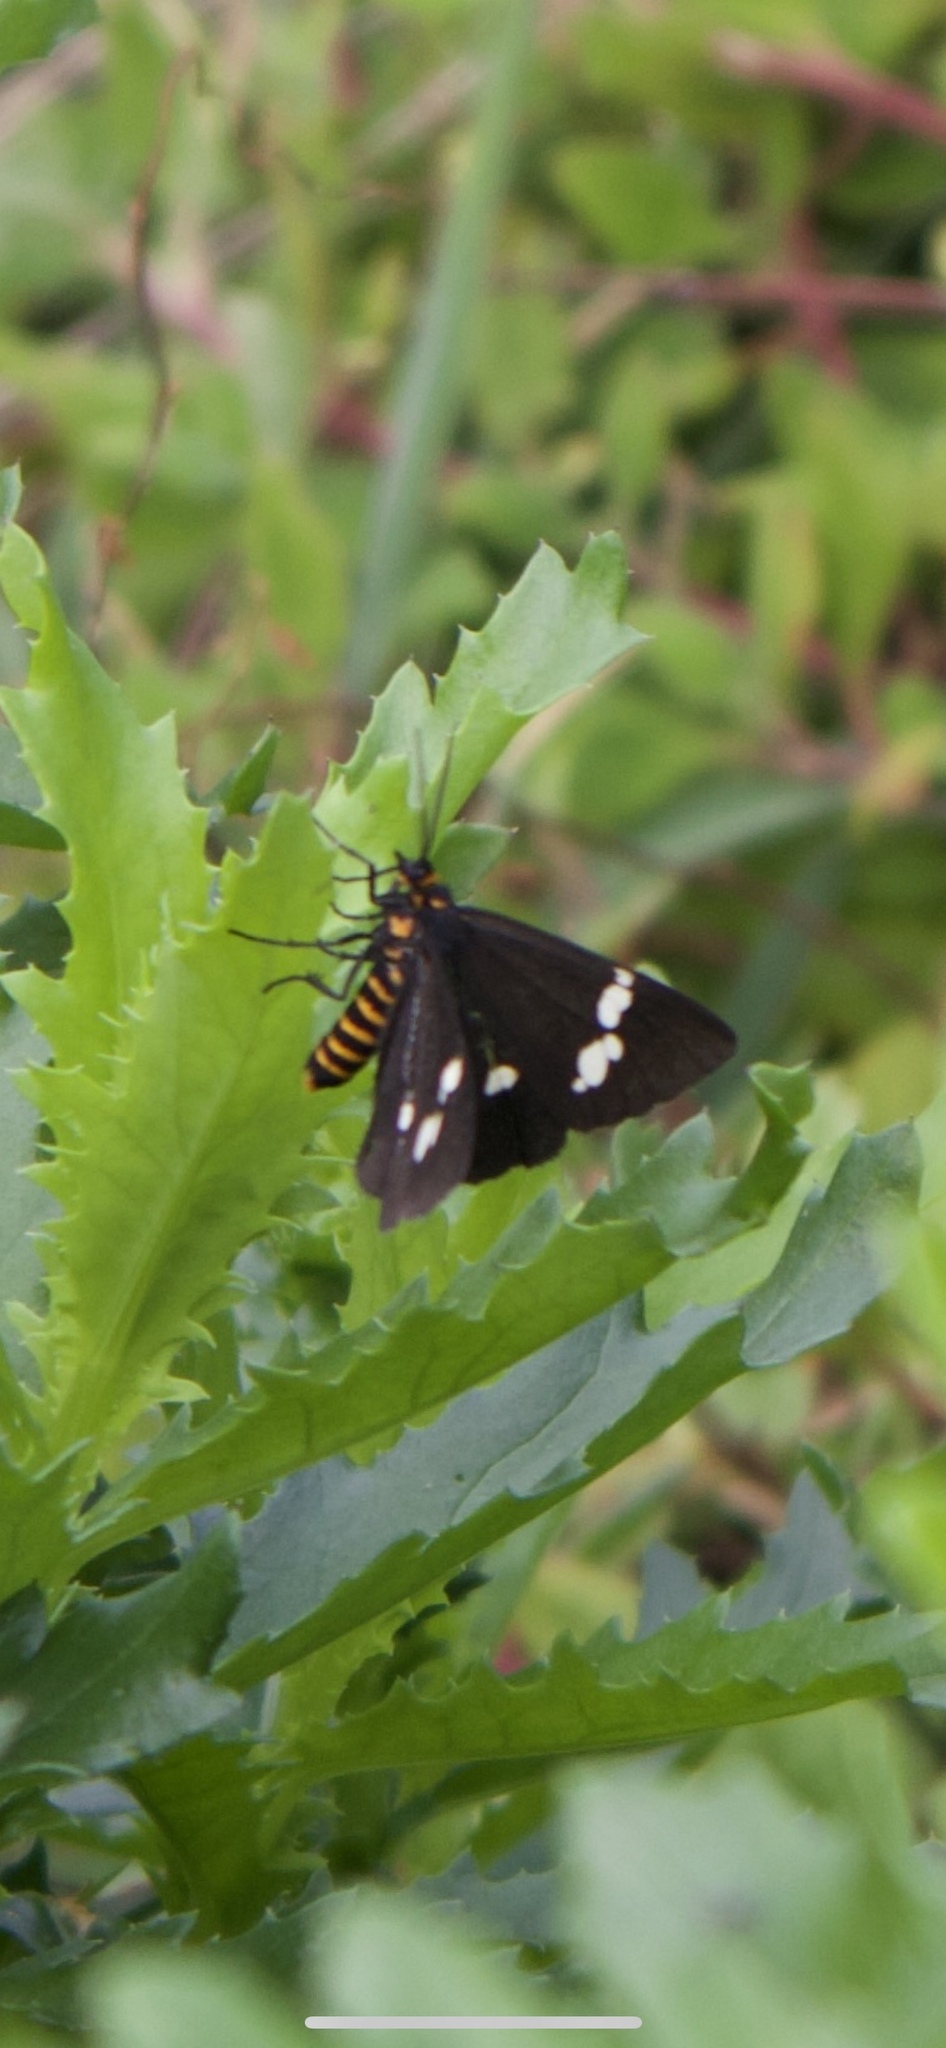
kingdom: Animalia
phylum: Arthropoda
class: Insecta
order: Lepidoptera
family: Erebidae
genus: Nyctemera
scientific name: Nyctemera annulatum
